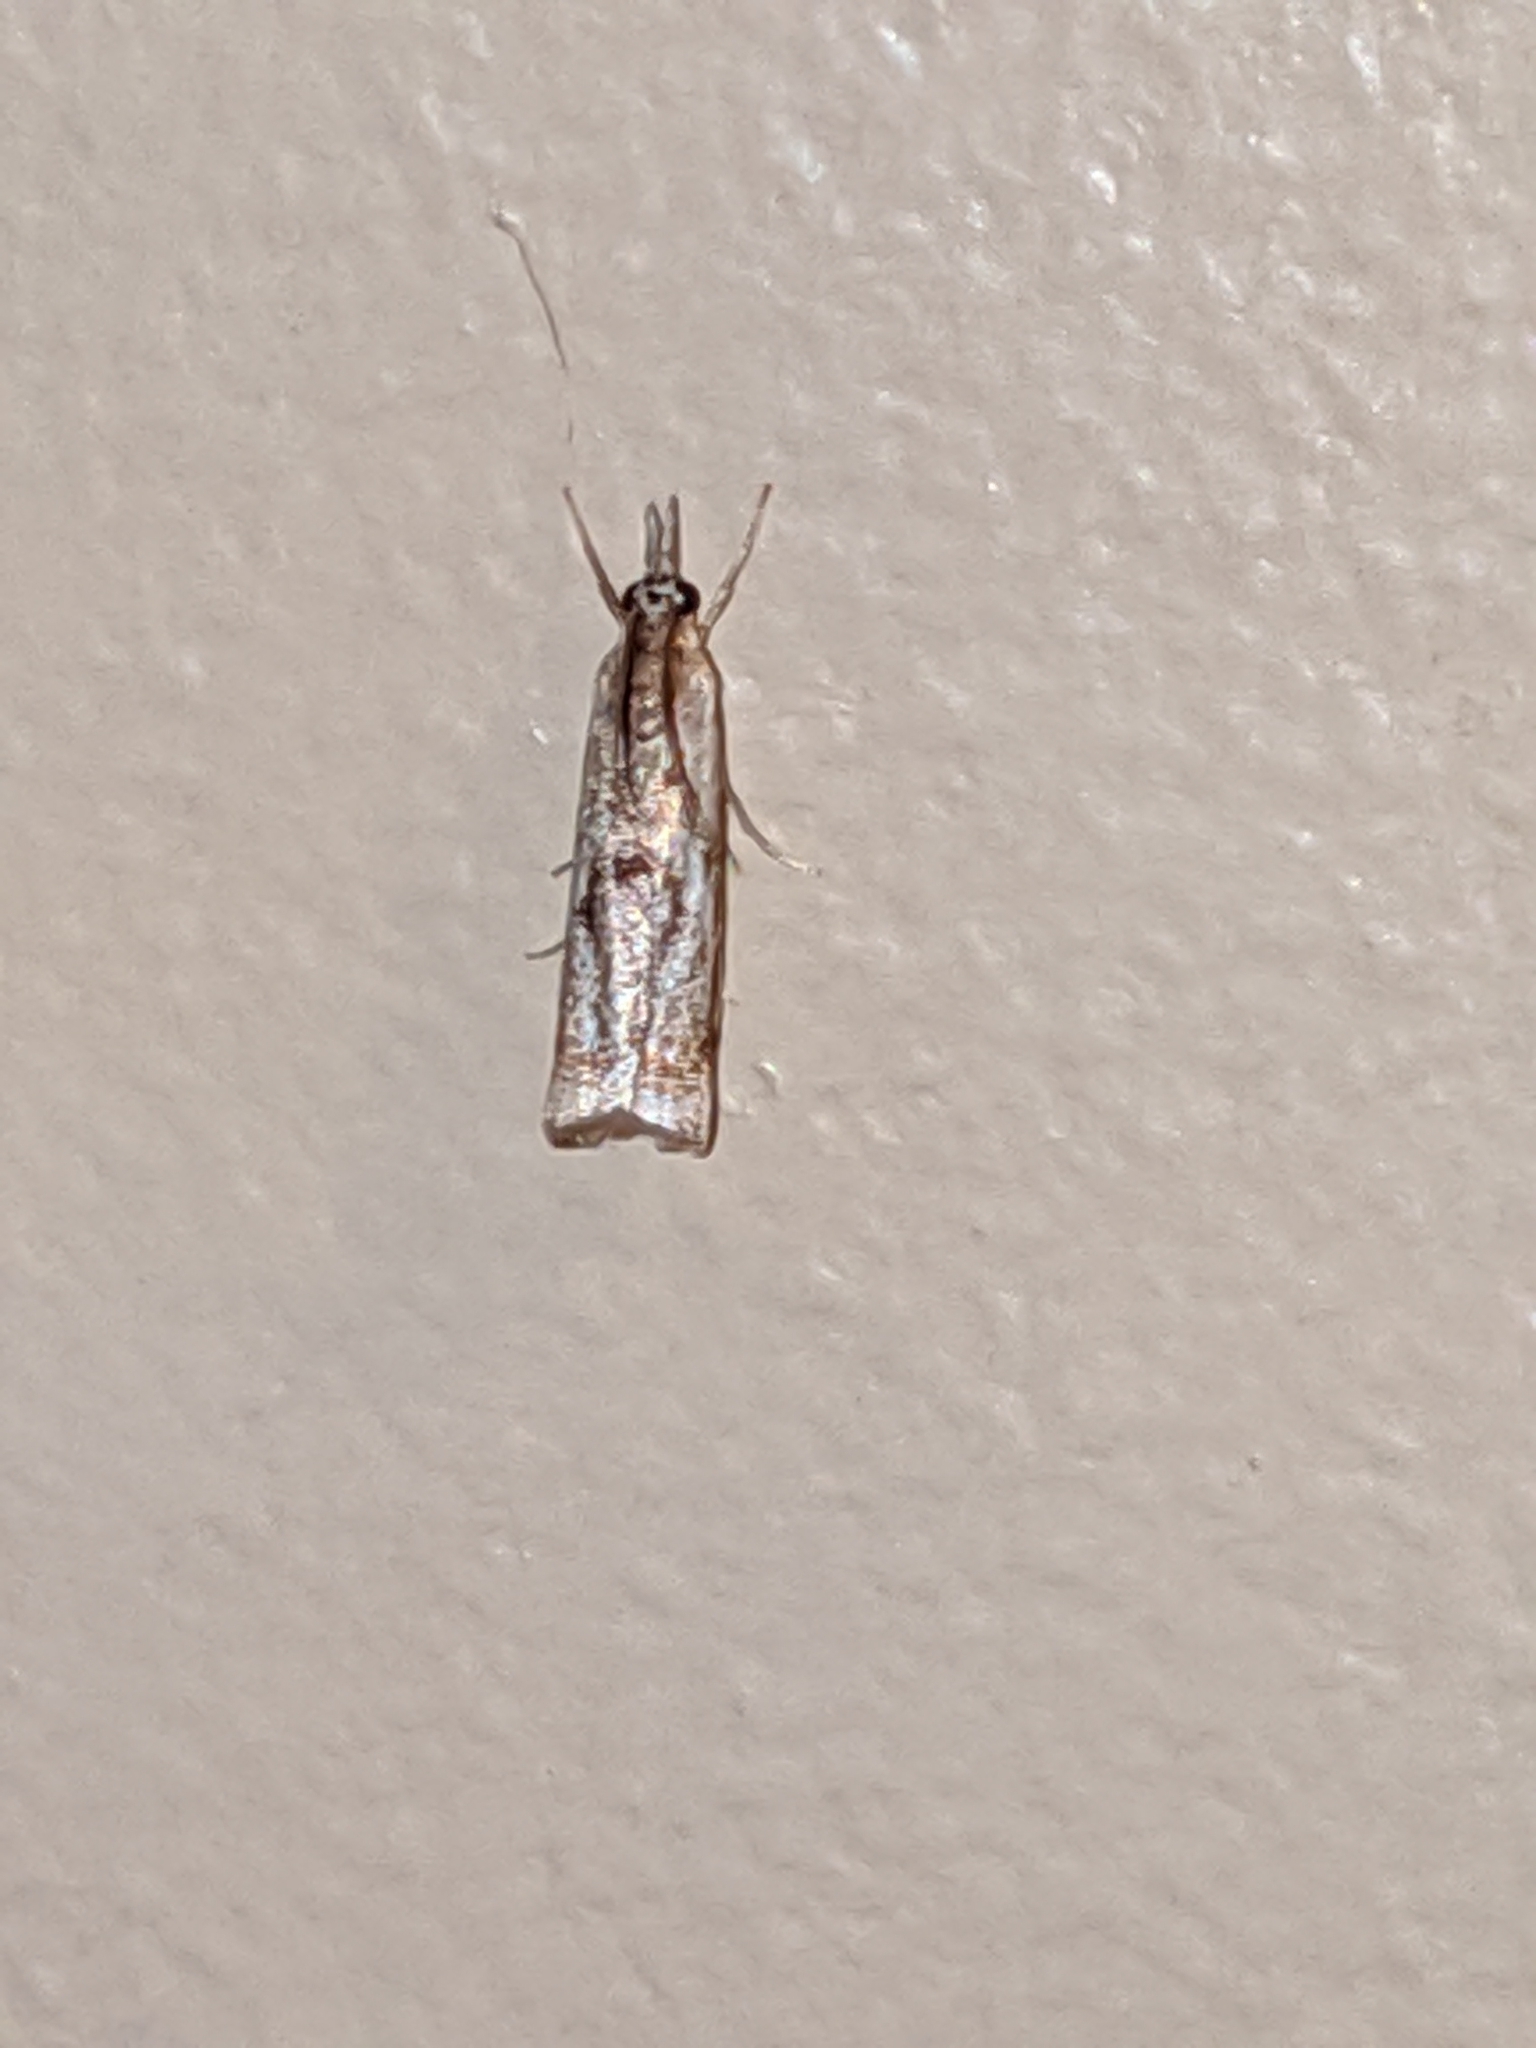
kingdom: Animalia
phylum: Arthropoda
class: Insecta
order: Lepidoptera
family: Crambidae
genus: Microcrambus
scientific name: Microcrambus elegans
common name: Elegant grass-veneer
